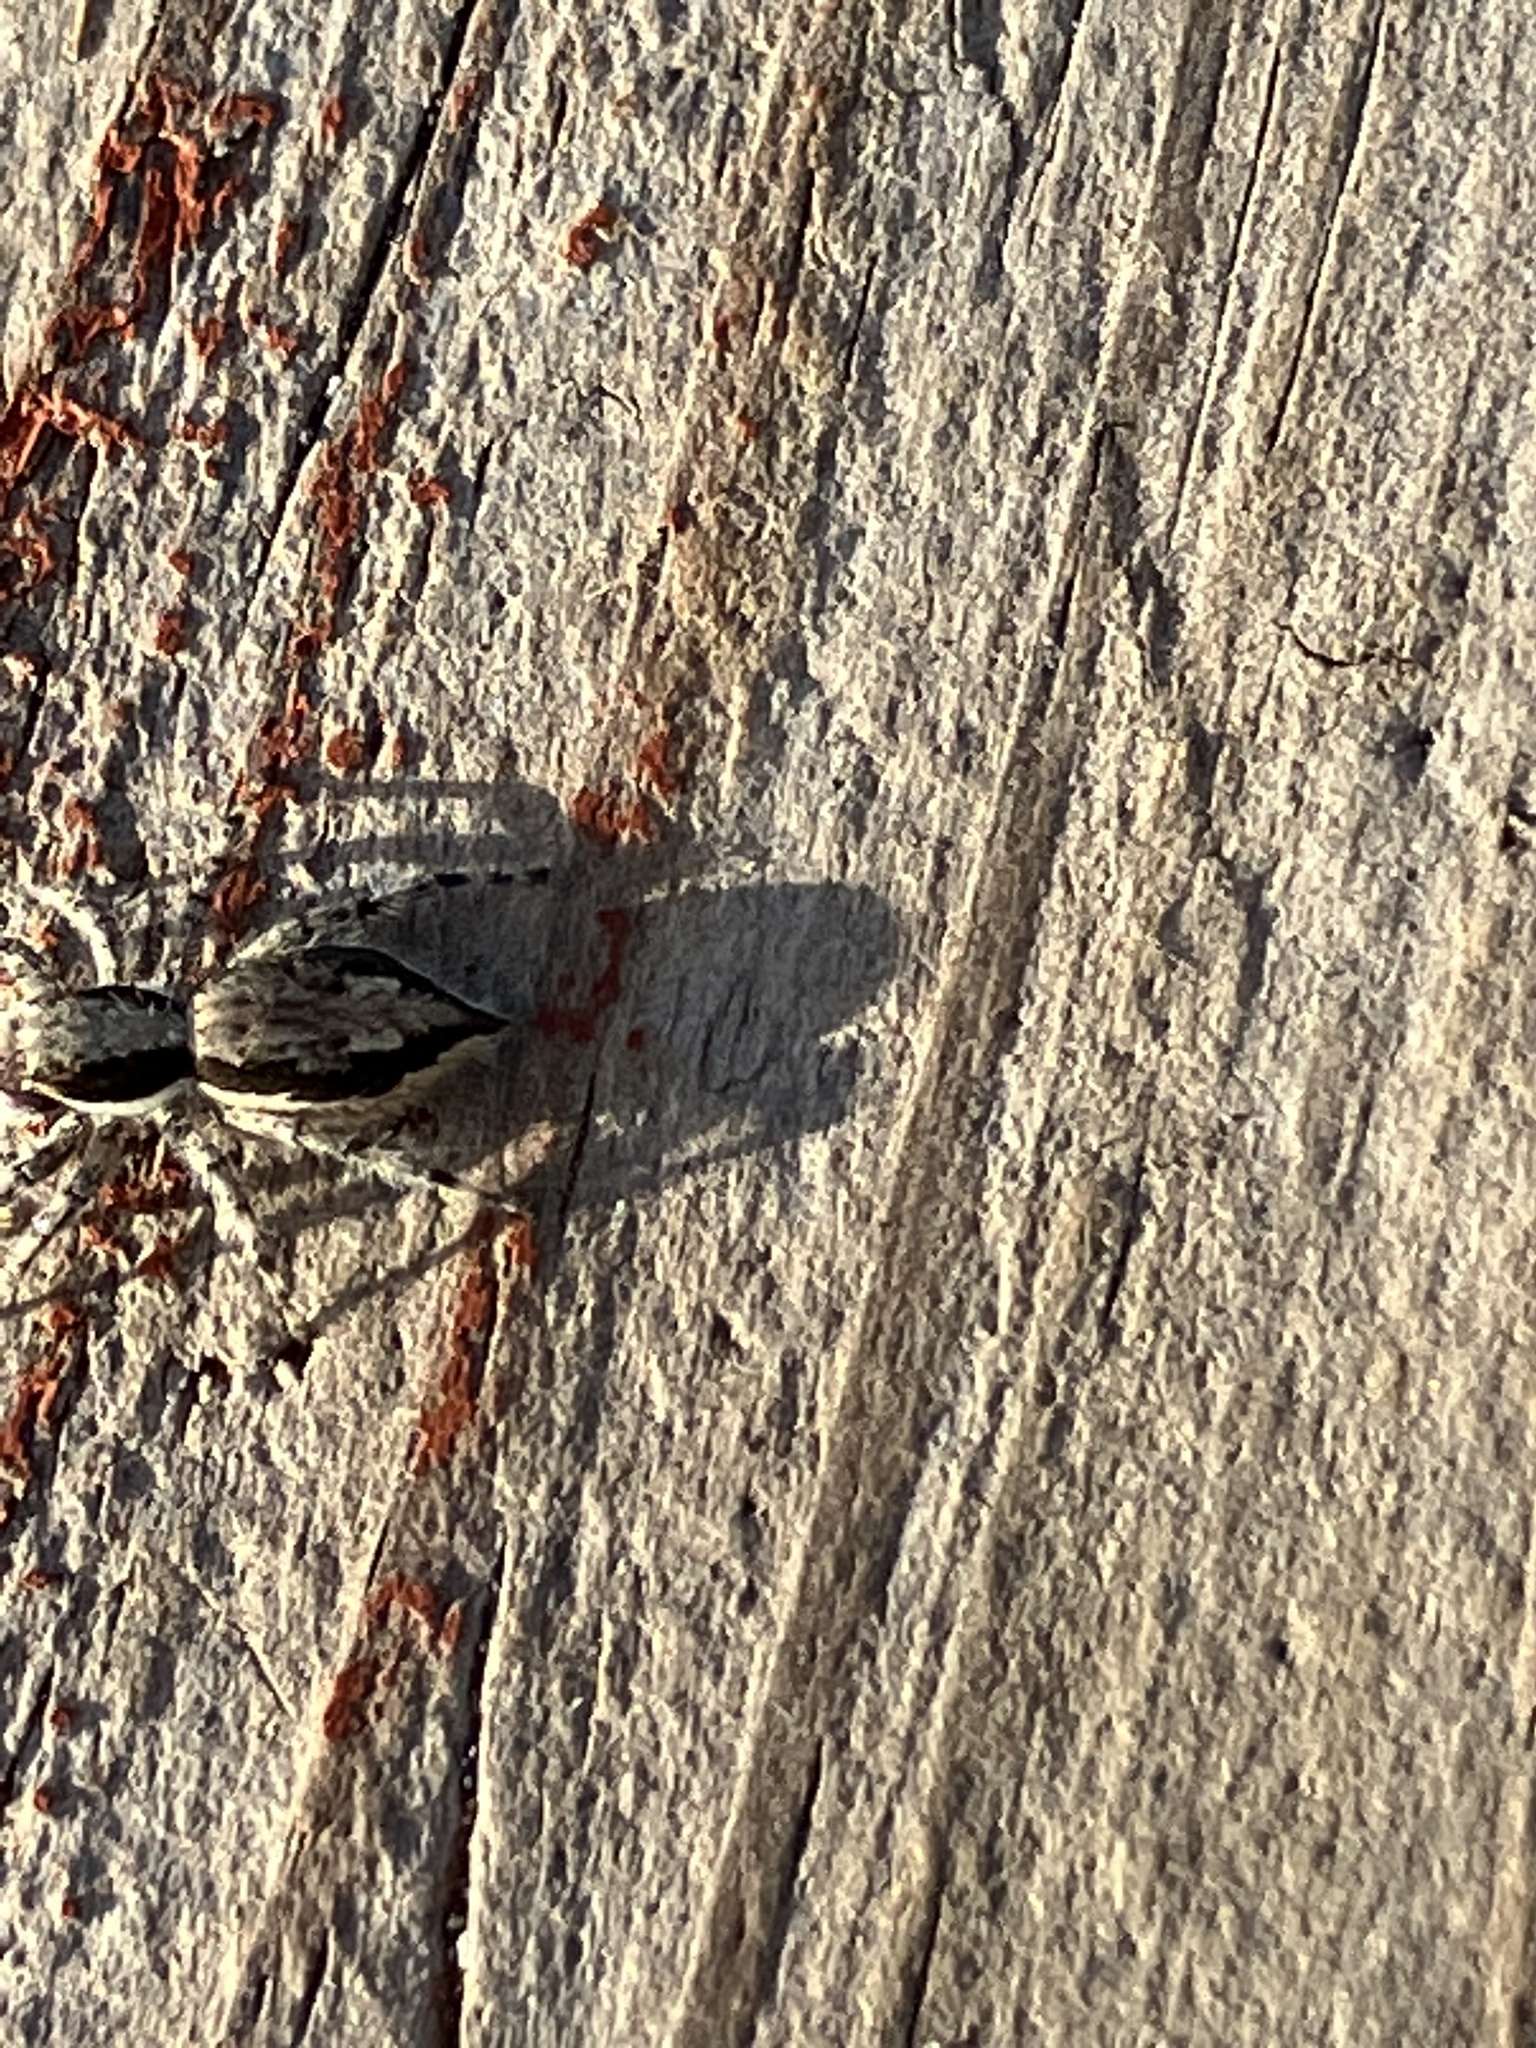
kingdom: Animalia
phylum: Arthropoda
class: Arachnida
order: Araneae
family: Salticidae
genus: Menemerus
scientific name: Menemerus bivittatus
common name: Gray wall jumper
